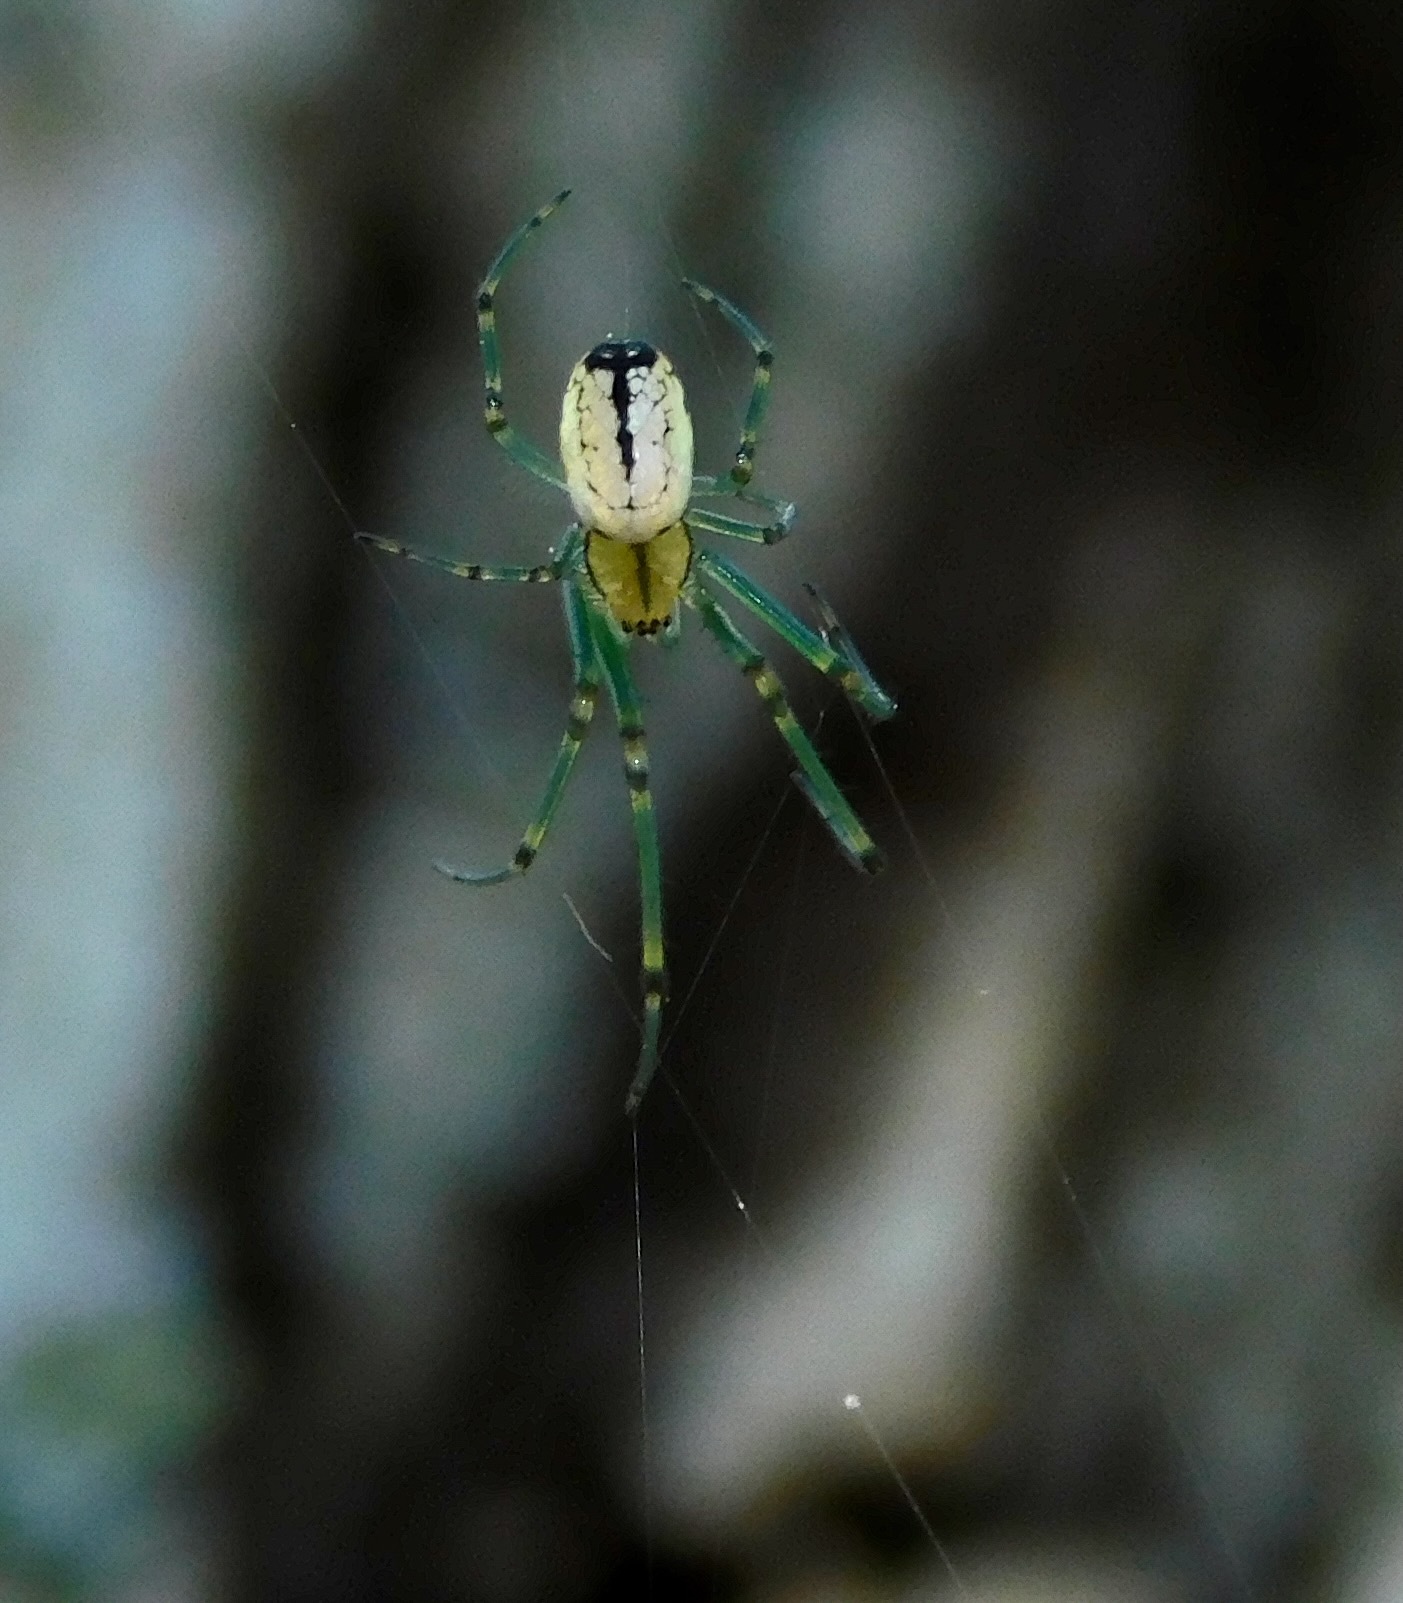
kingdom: Animalia
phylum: Arthropoda
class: Arachnida
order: Araneae
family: Tetragnathidae
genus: Leucauge
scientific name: Leucauge venusta
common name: Longjawed orb weavers
